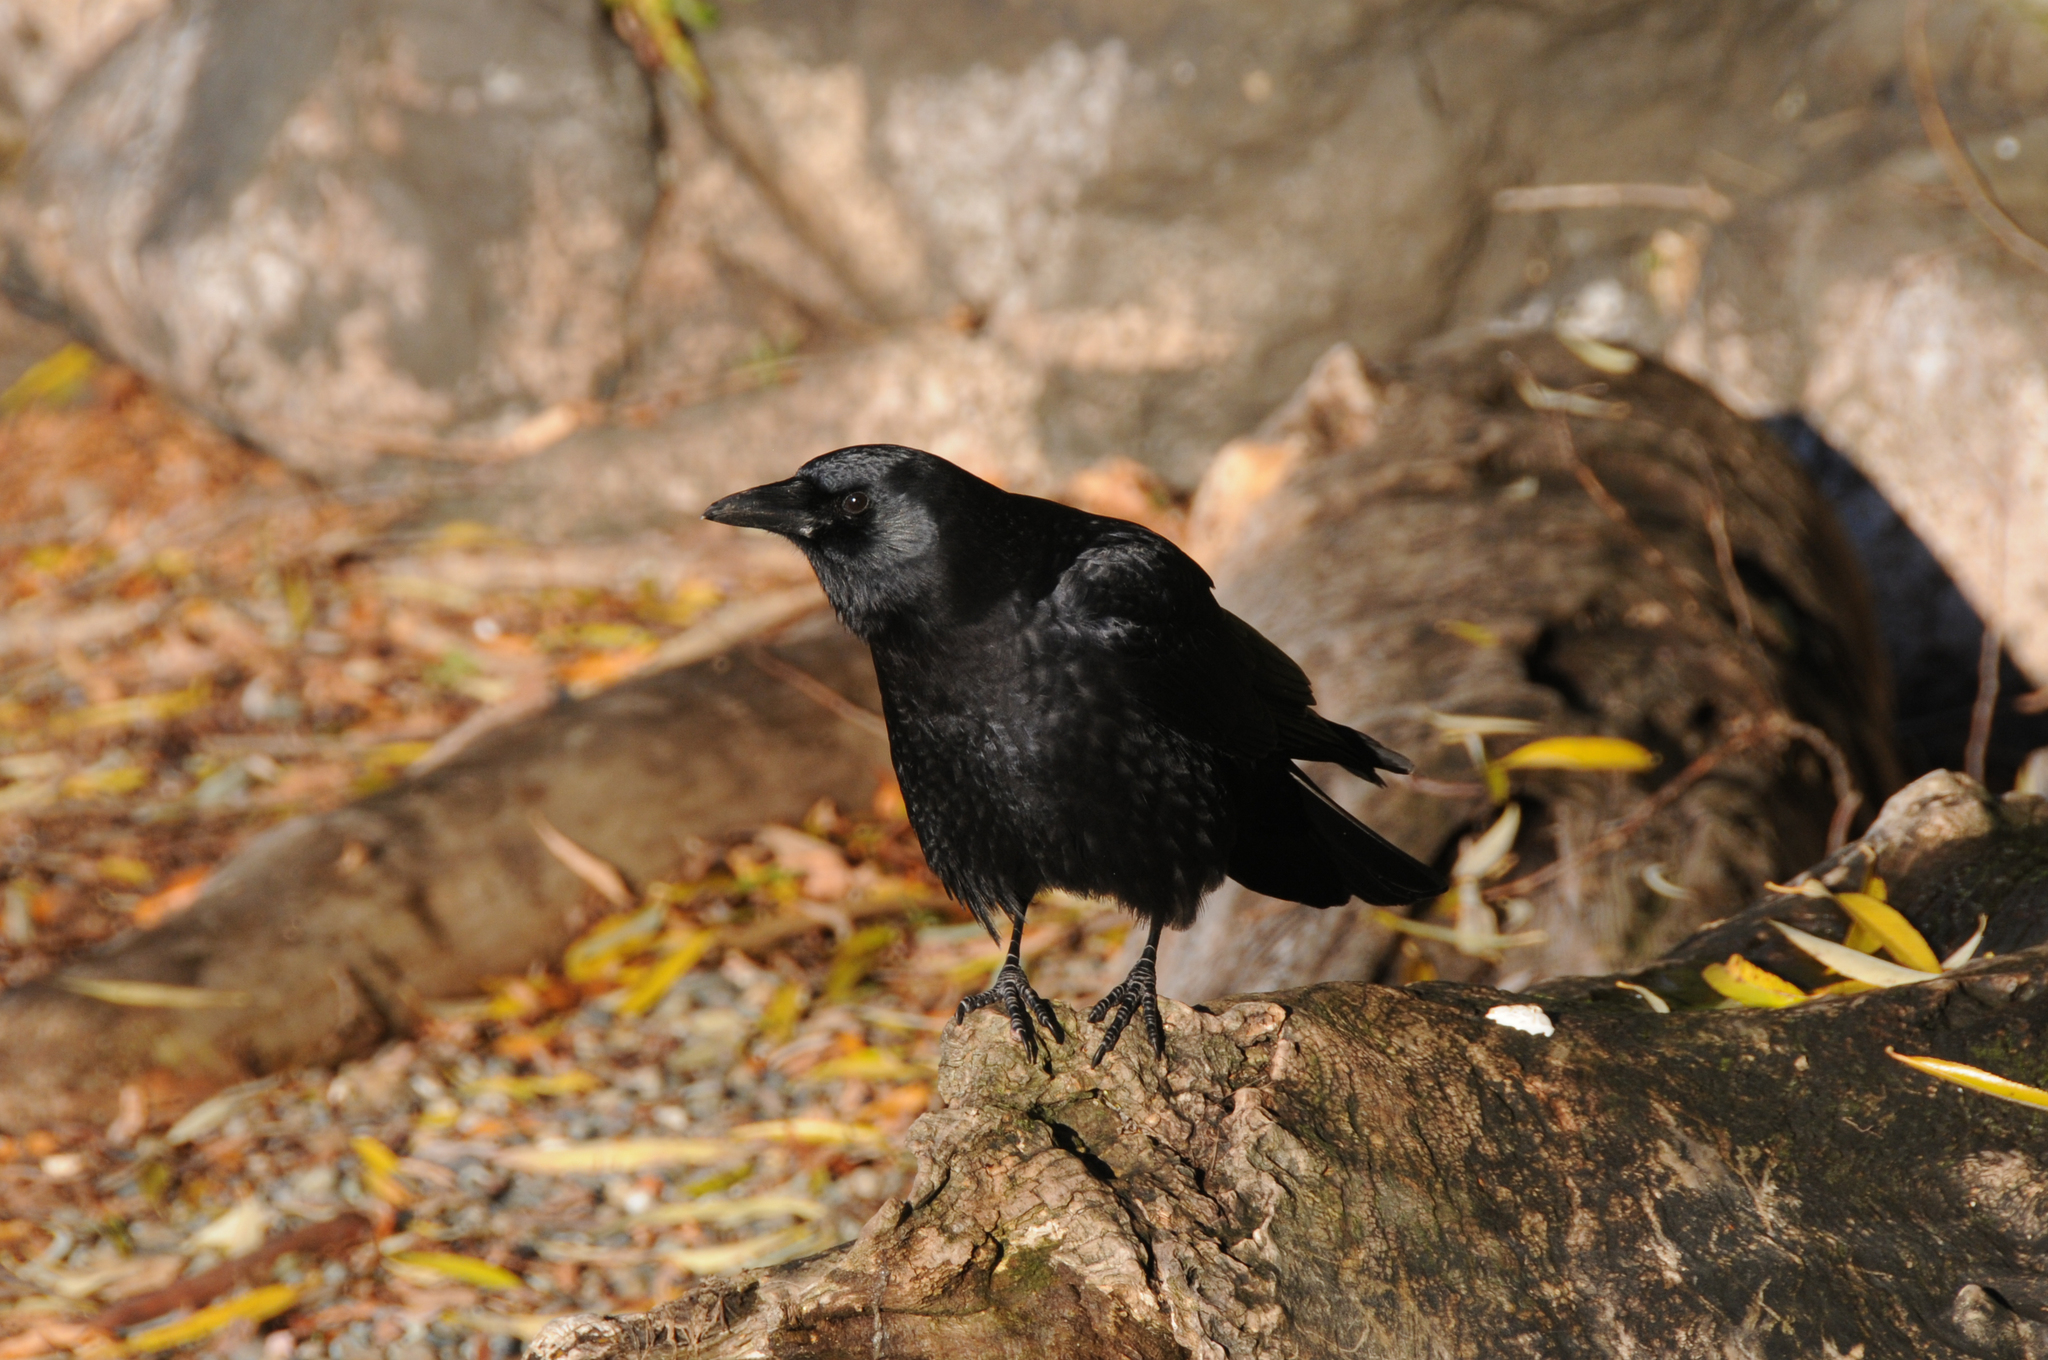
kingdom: Animalia
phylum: Chordata
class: Aves
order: Passeriformes
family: Corvidae
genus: Corvus
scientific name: Corvus brachyrhynchos
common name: American crow
